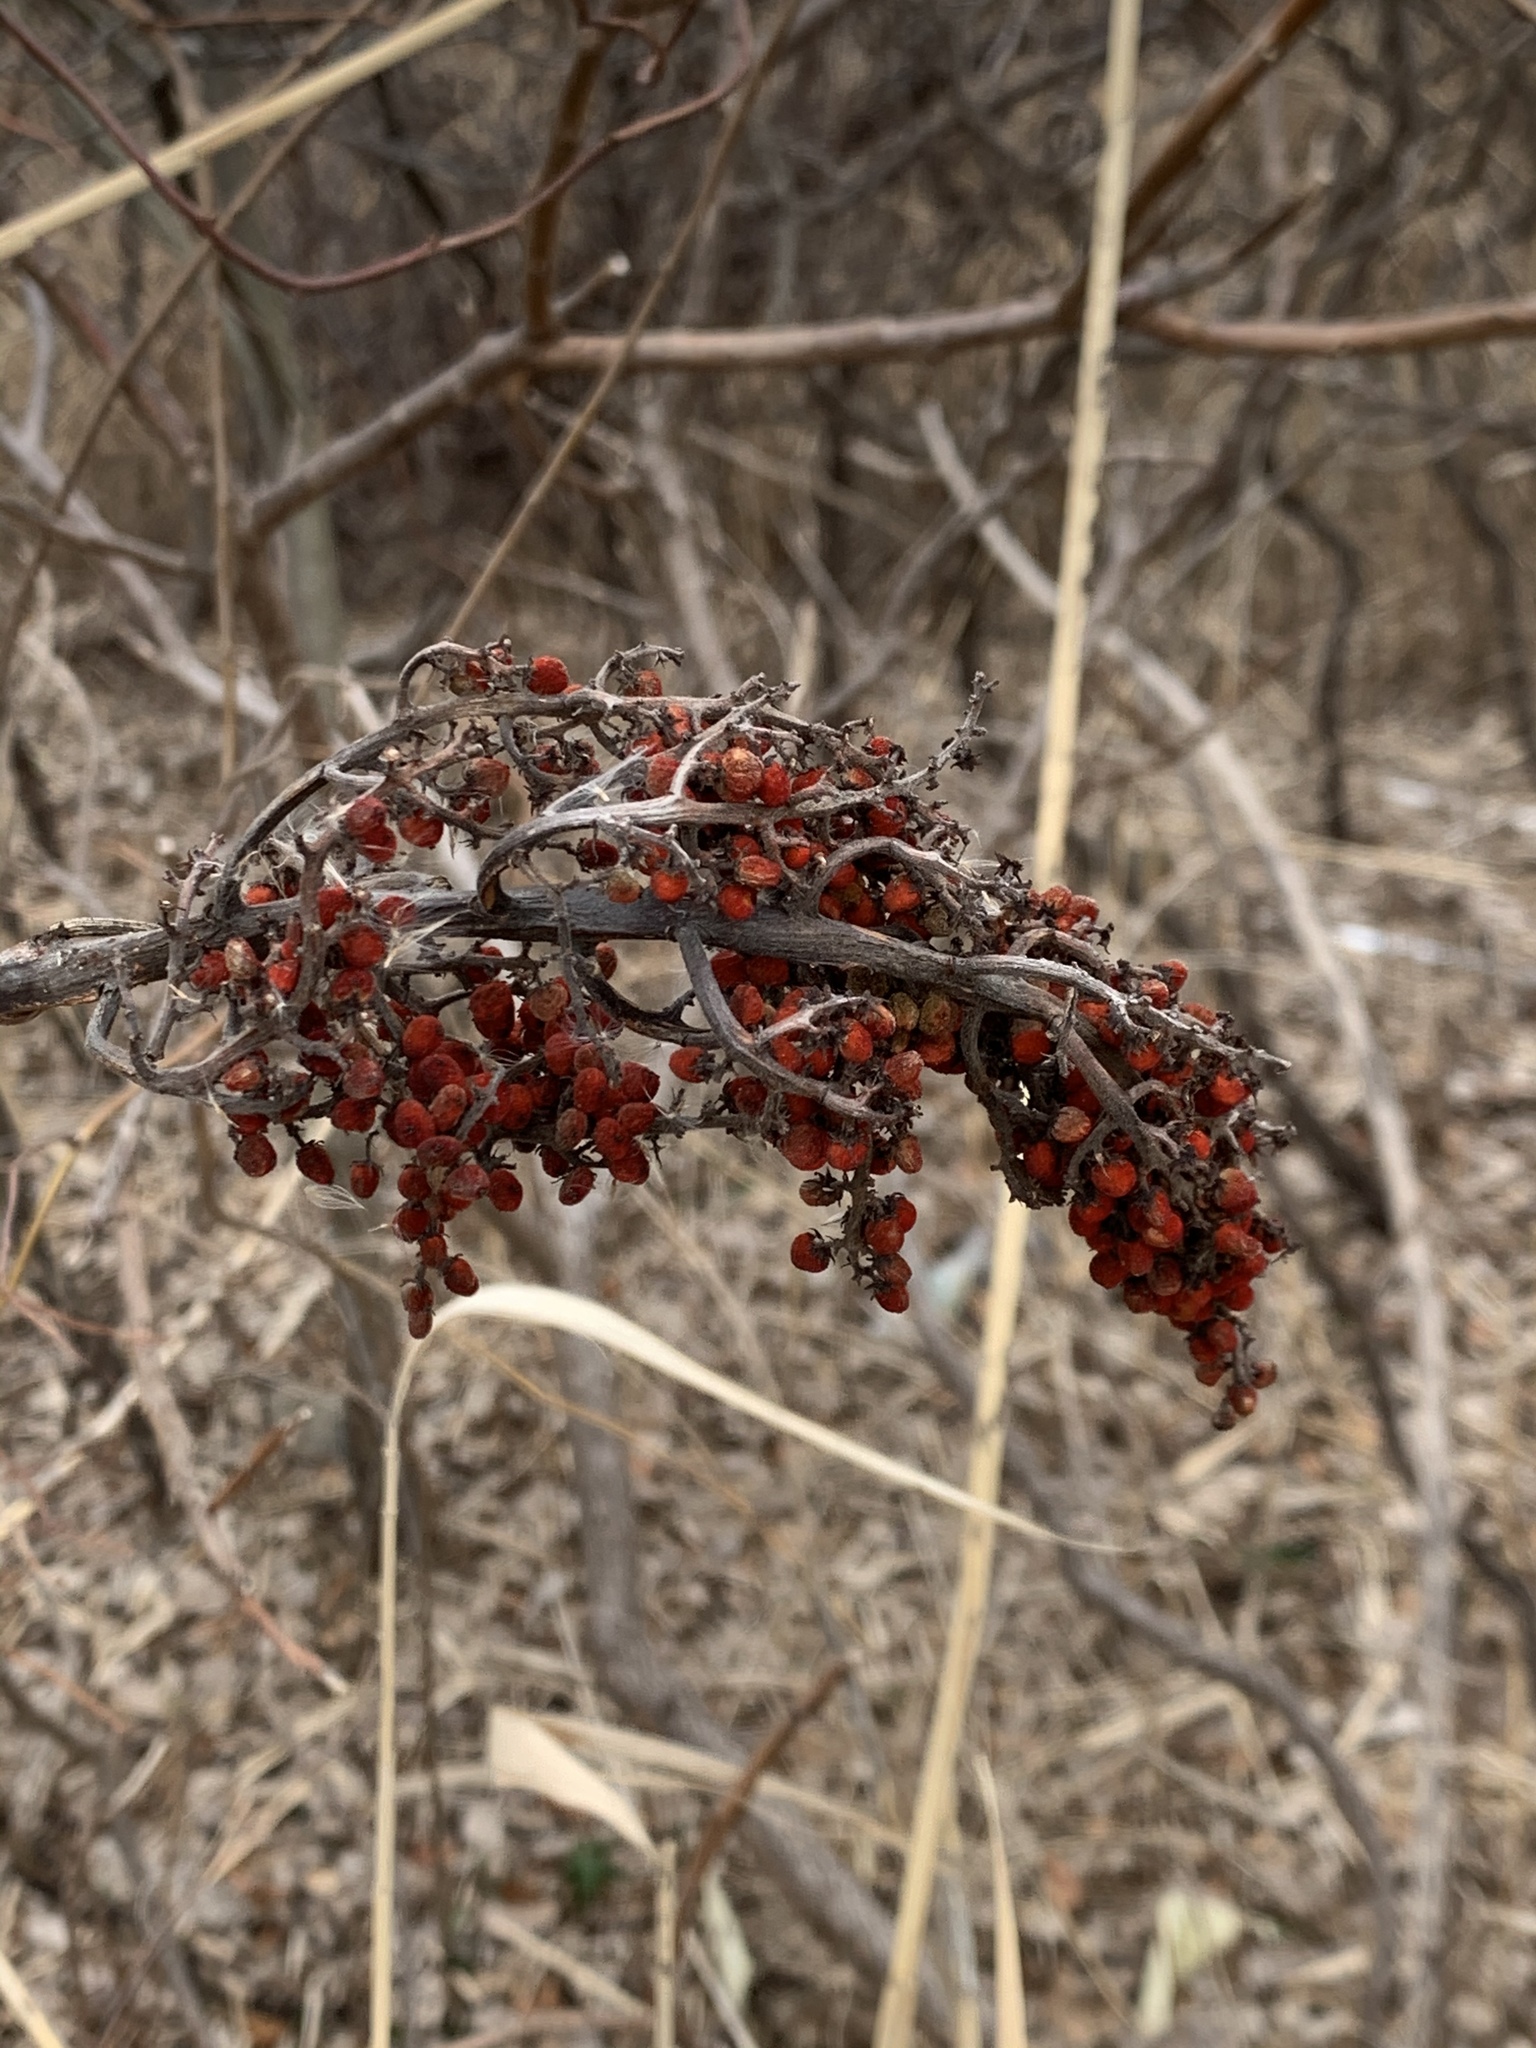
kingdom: Plantae
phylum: Tracheophyta
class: Magnoliopsida
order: Sapindales
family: Anacardiaceae
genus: Rhus
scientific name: Rhus glabra
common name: Scarlet sumac
